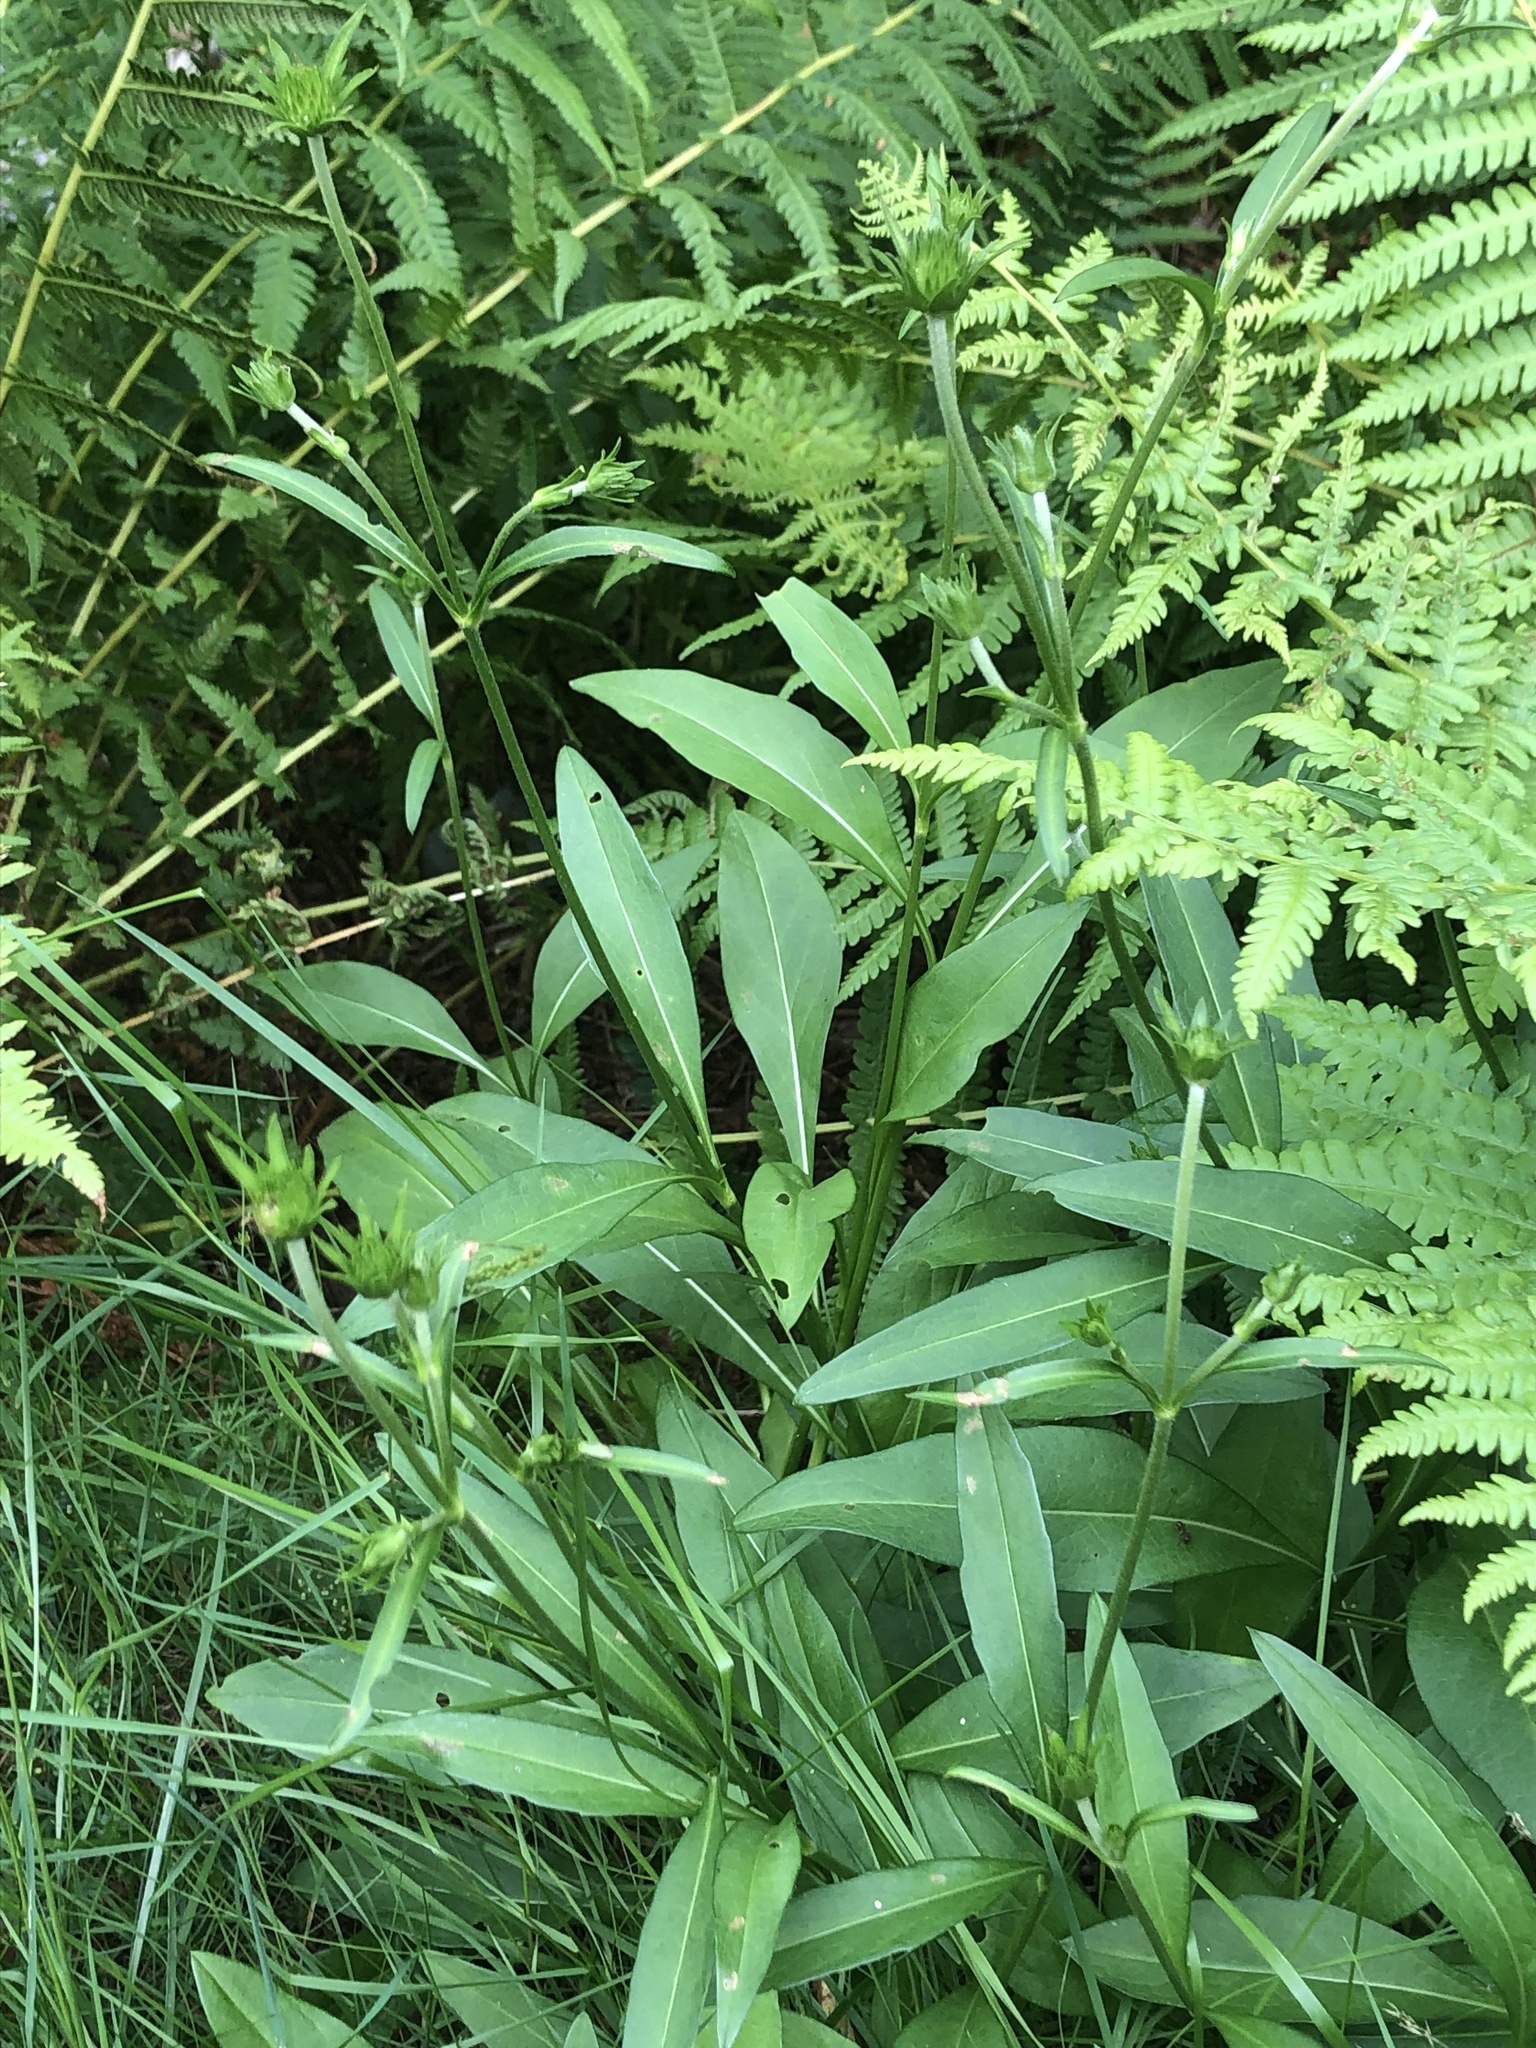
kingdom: Plantae
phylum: Tracheophyta
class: Magnoliopsida
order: Dipsacales
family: Caprifoliaceae
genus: Succisa
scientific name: Succisa pratensis
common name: Devil's-bit
